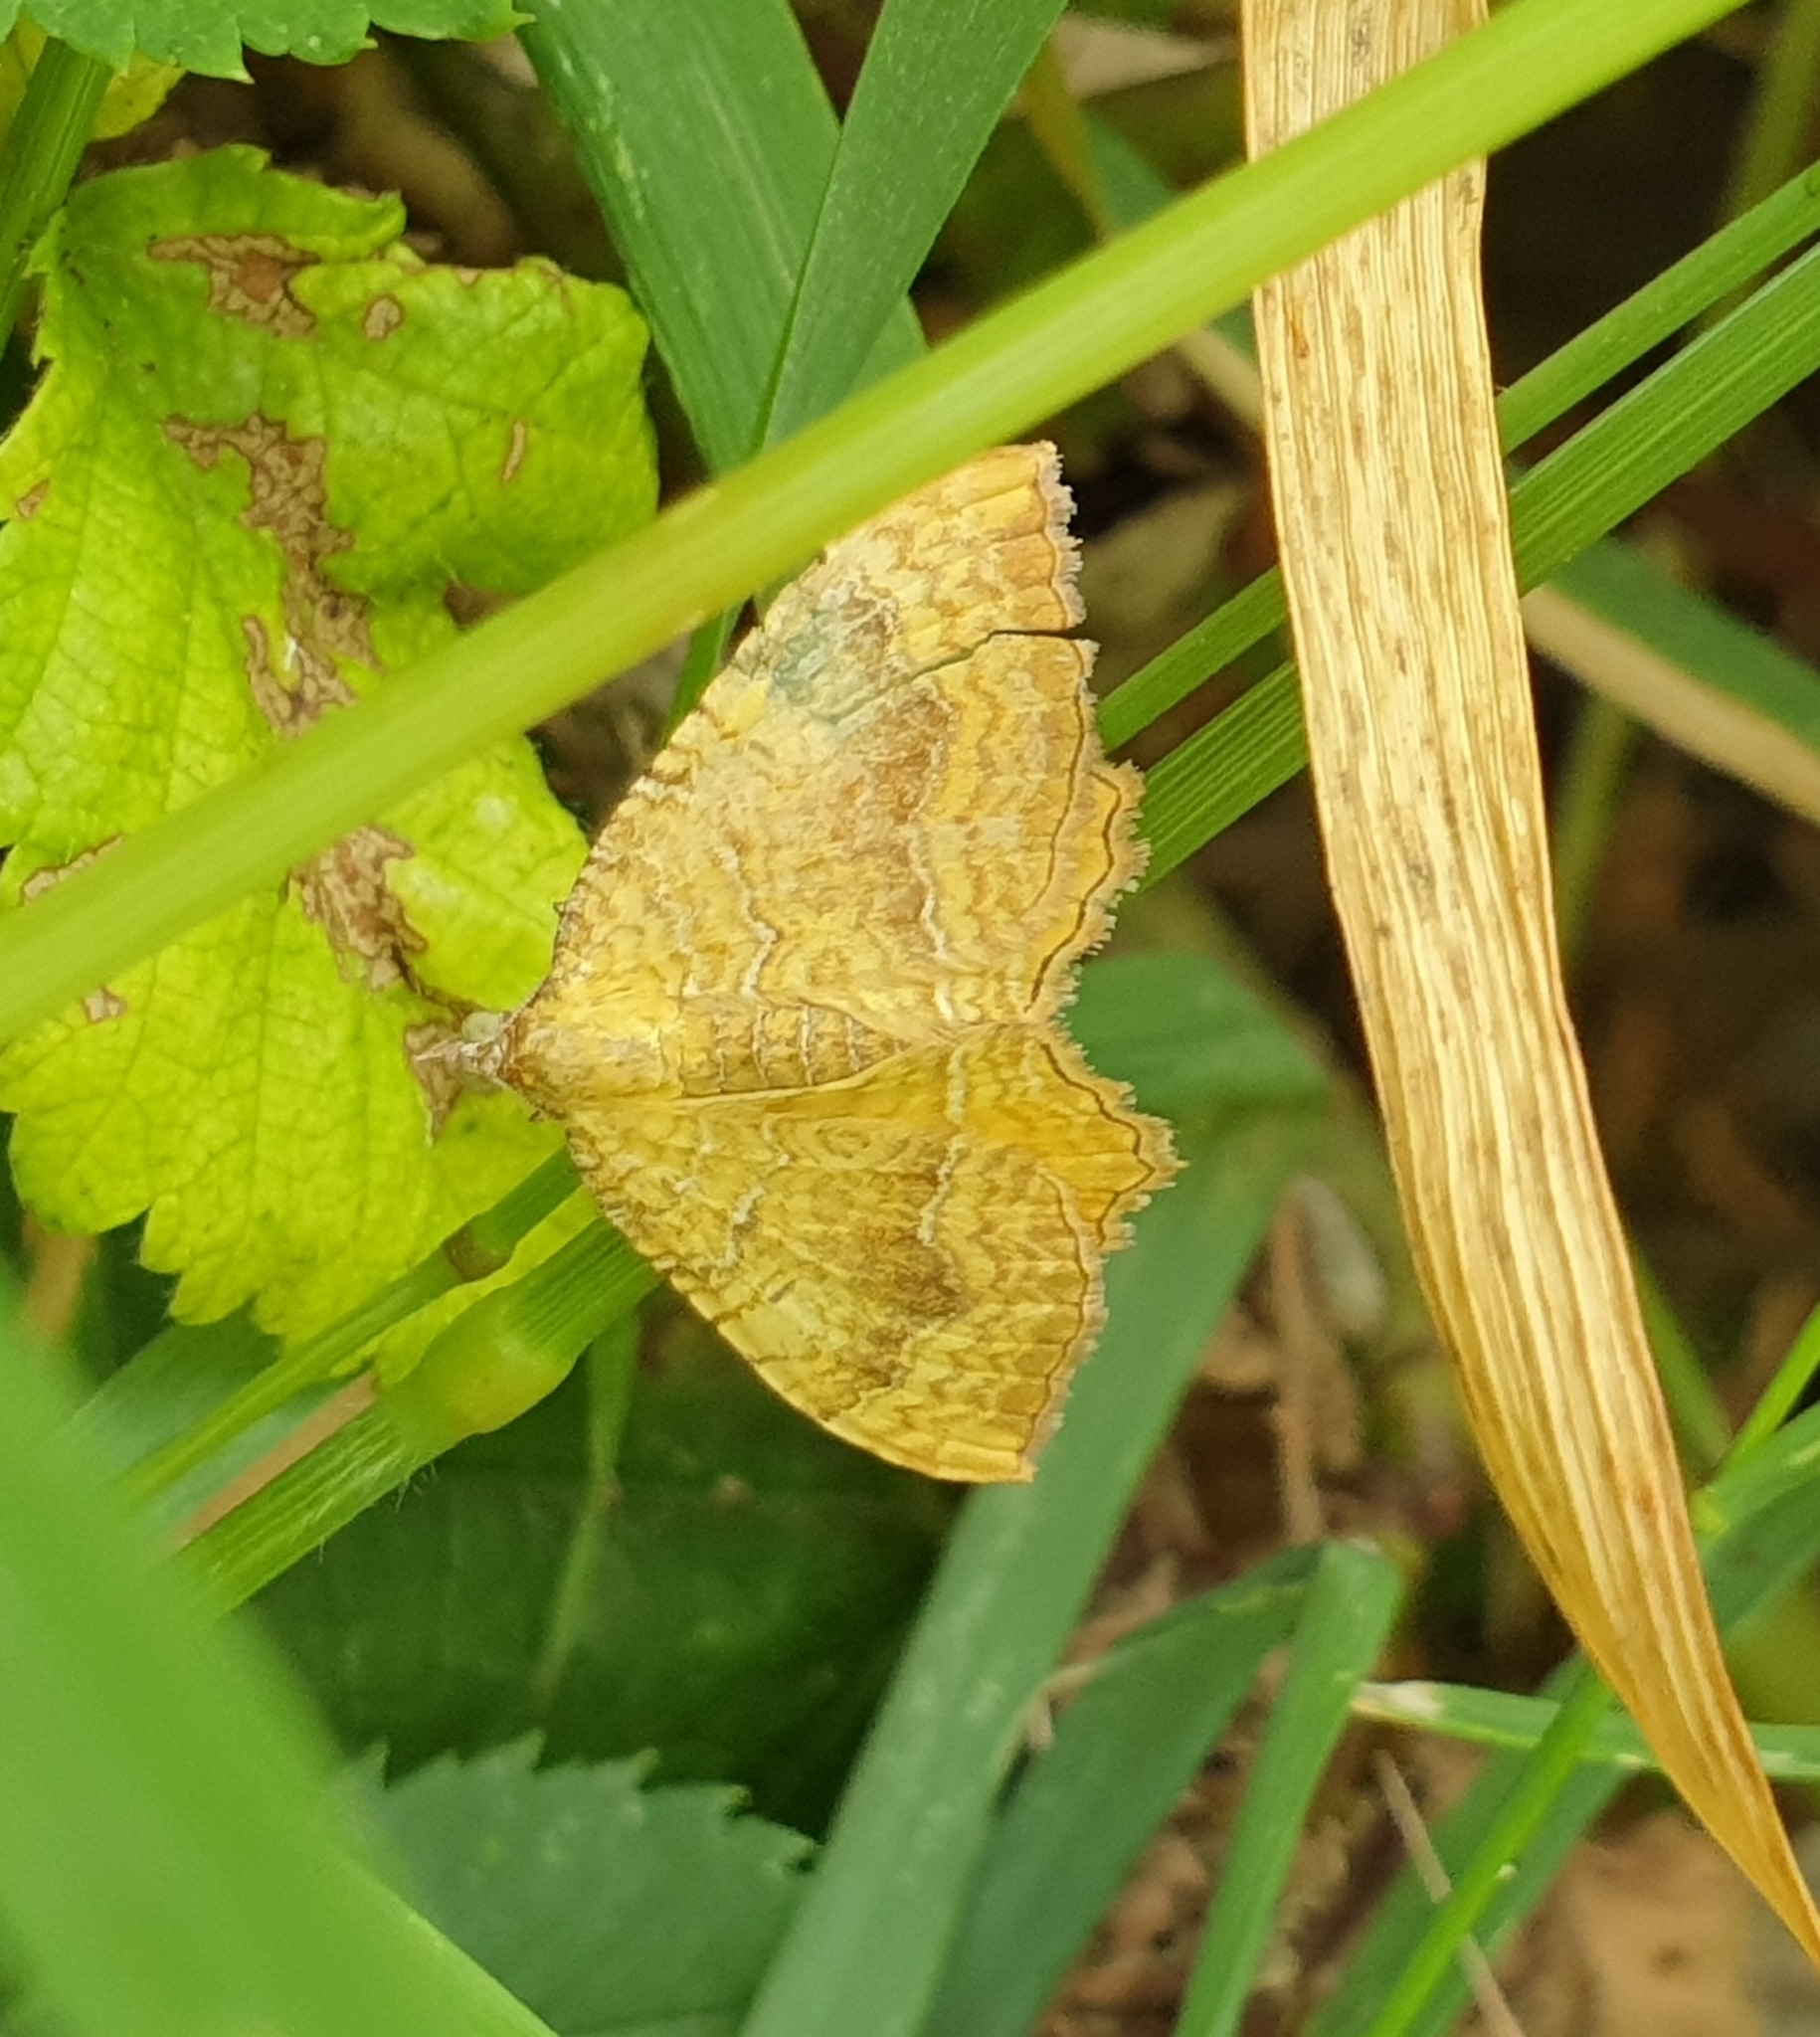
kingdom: Animalia
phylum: Arthropoda
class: Insecta
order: Lepidoptera
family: Geometridae
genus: Camptogramma
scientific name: Camptogramma bilineata
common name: Yellow shell
